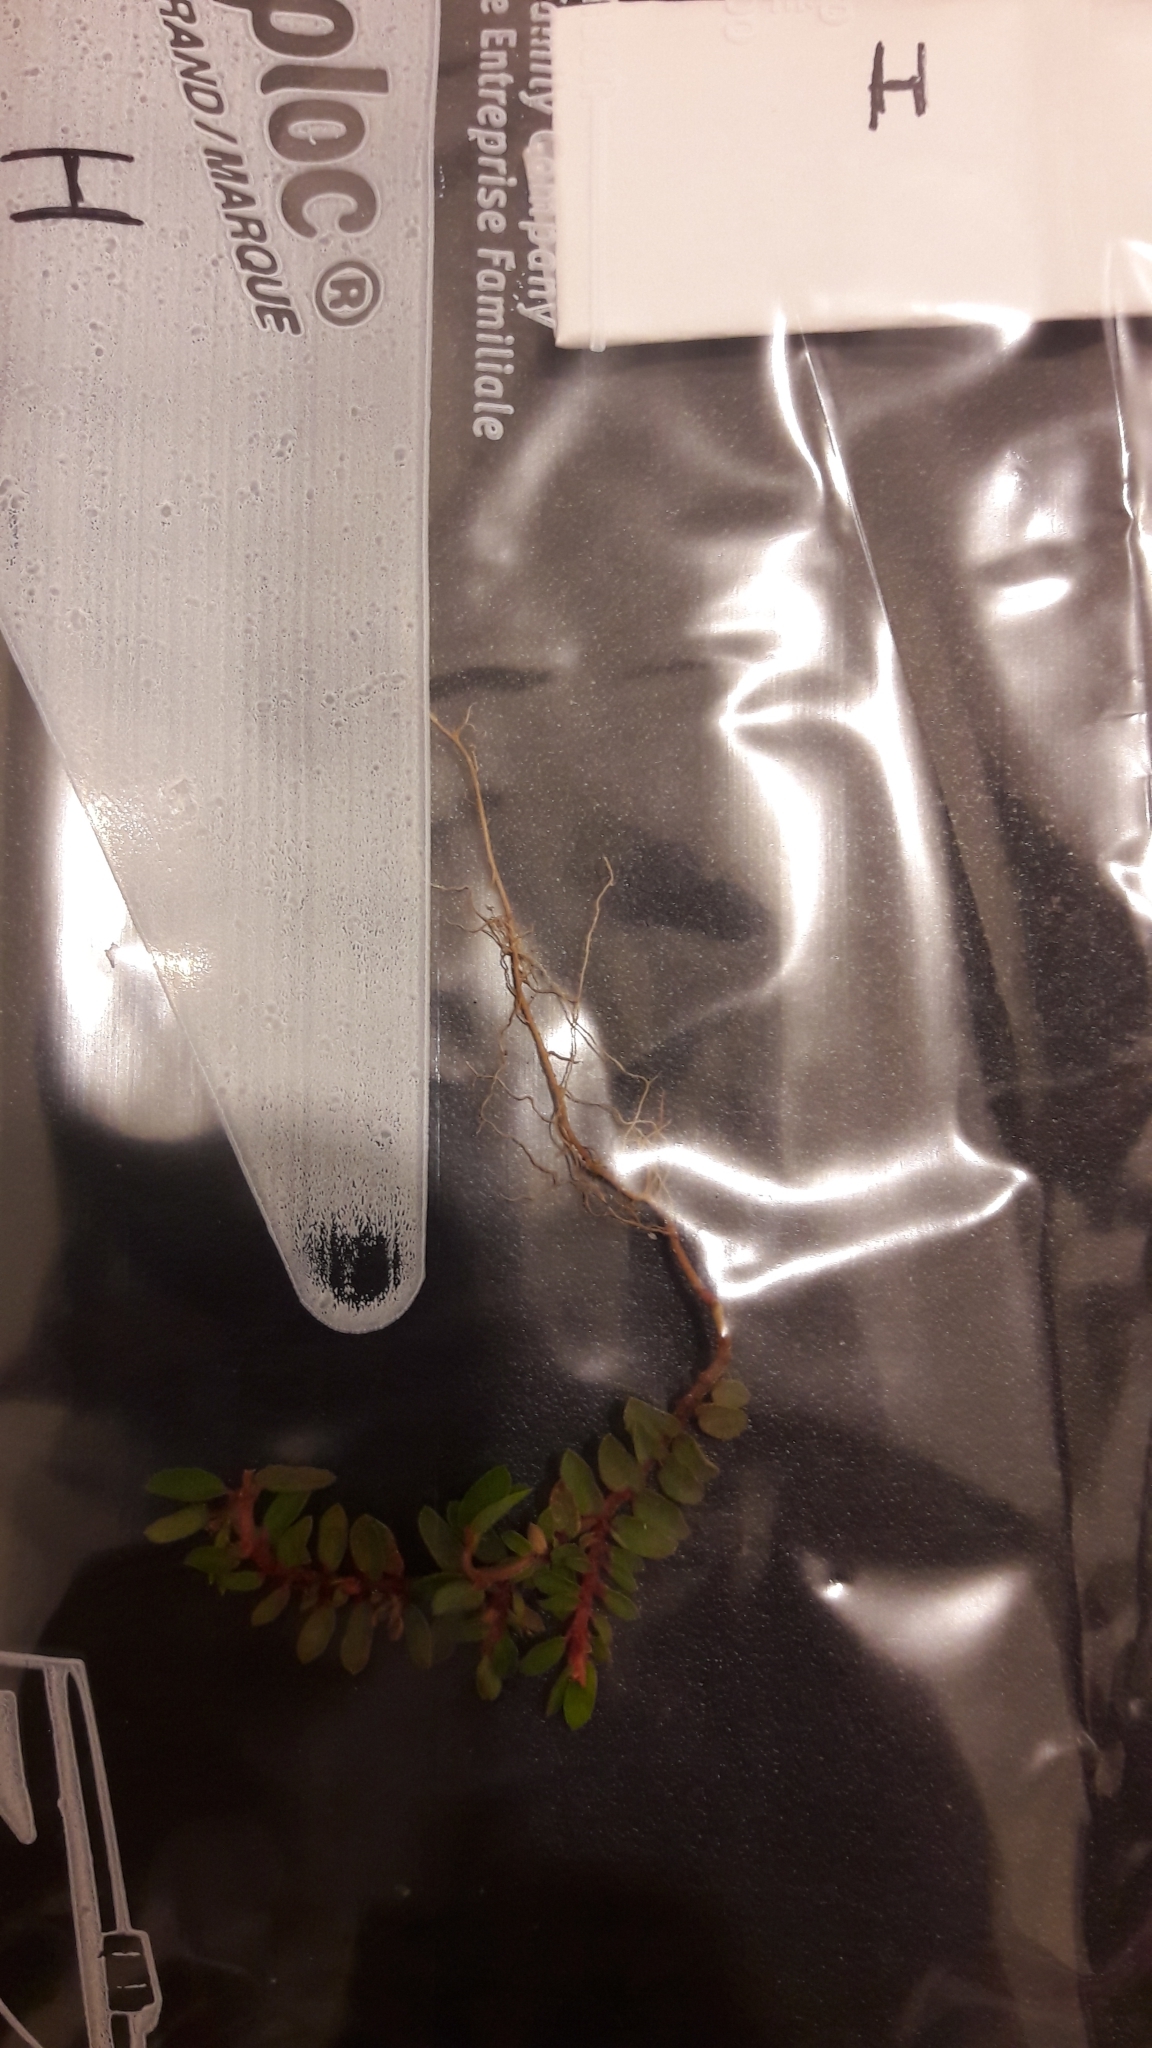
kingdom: Plantae
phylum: Tracheophyta
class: Magnoliopsida
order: Malpighiales
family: Euphorbiaceae
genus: Euphorbia
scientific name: Euphorbia maculata
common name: Spotted spurge
